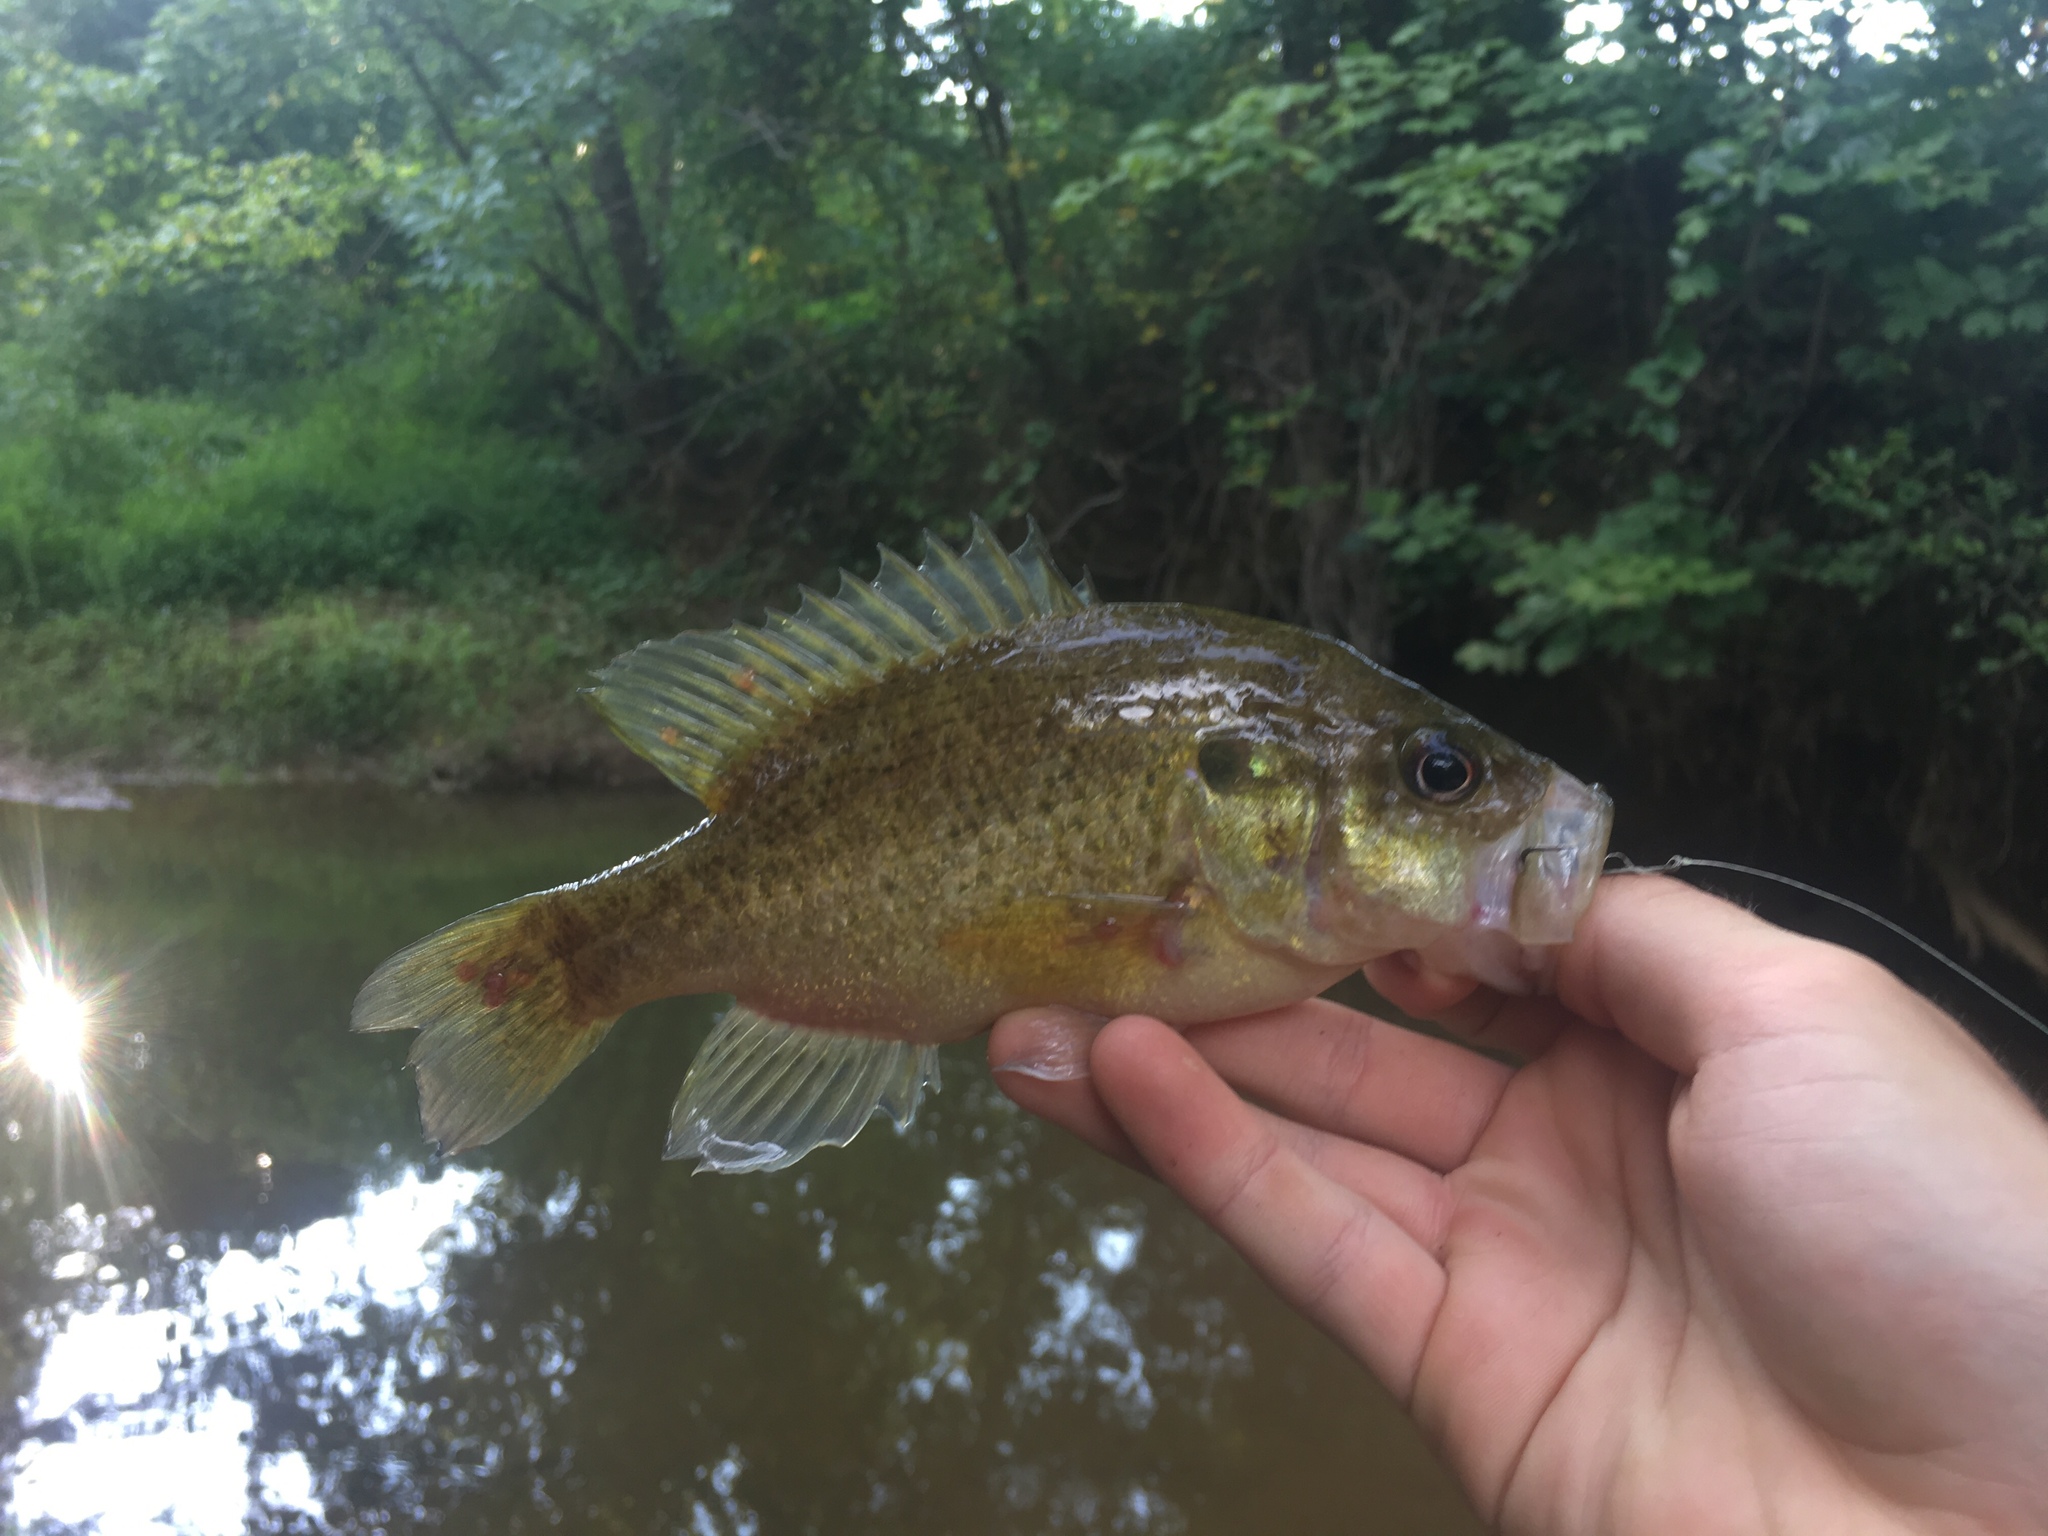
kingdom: Animalia
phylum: Chordata
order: Perciformes
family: Centrarchidae
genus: Lepomis
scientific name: Lepomis gulosus
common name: Warmouth
